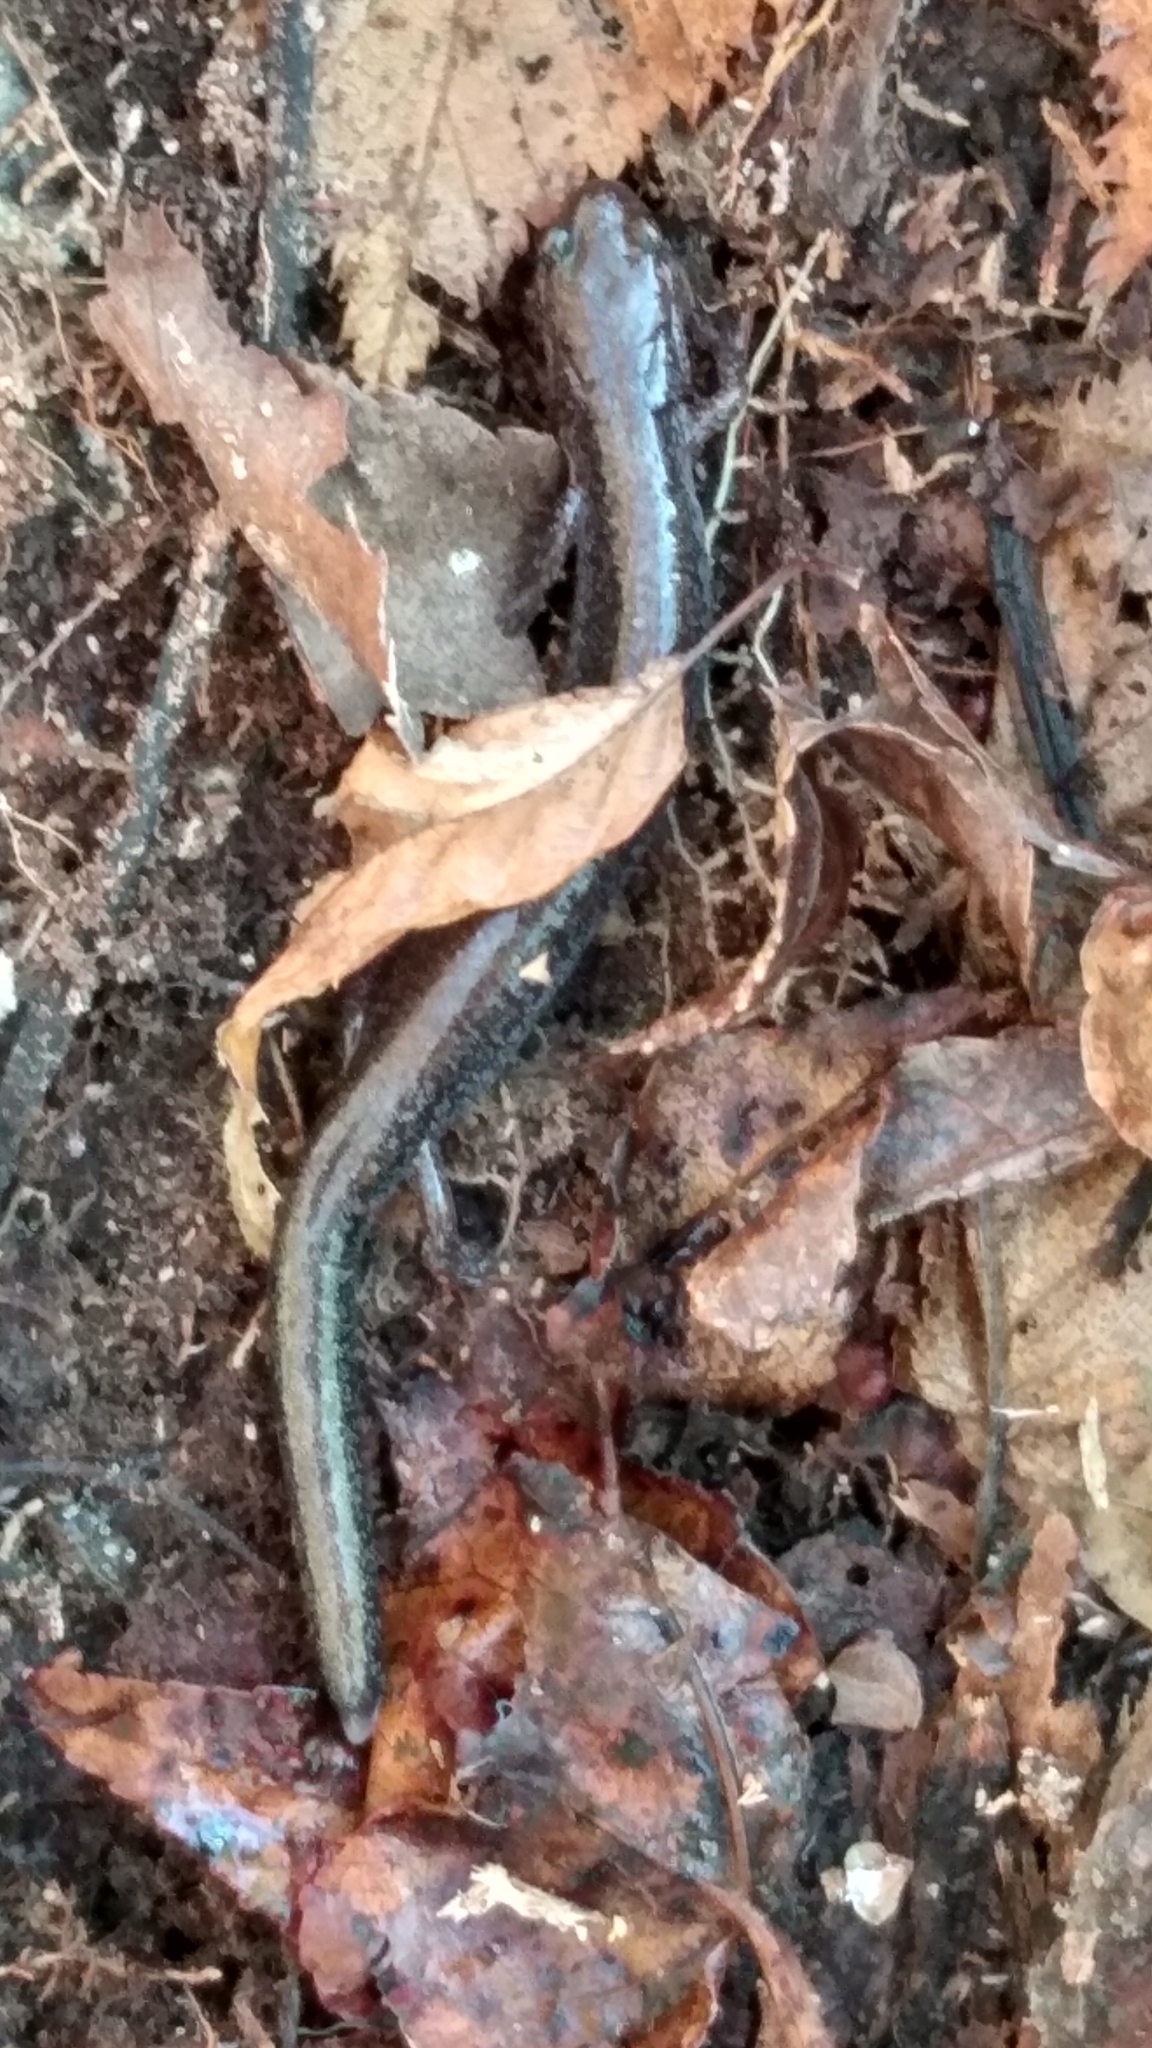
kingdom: Animalia
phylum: Chordata
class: Amphibia
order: Caudata
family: Plethodontidae
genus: Plethodon
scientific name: Plethodon cinereus
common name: Redback salamander
